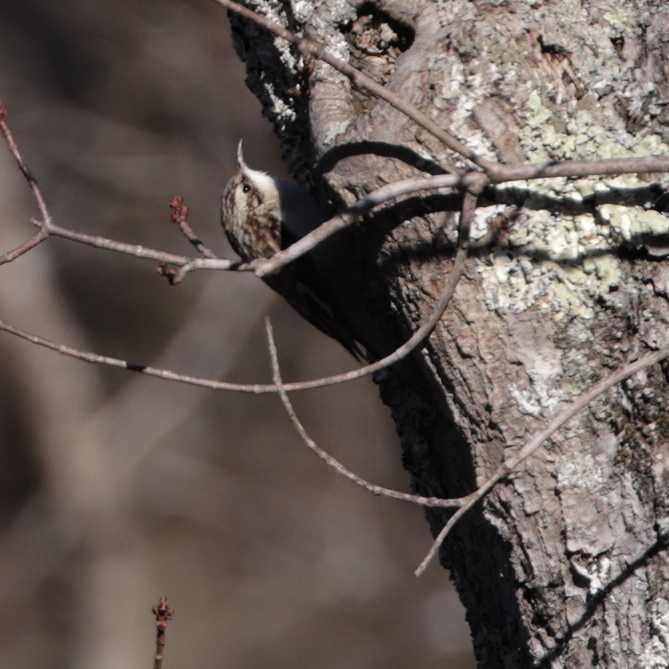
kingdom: Animalia
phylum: Chordata
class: Aves
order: Passeriformes
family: Certhiidae
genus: Certhia
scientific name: Certhia americana
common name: Brown creeper
